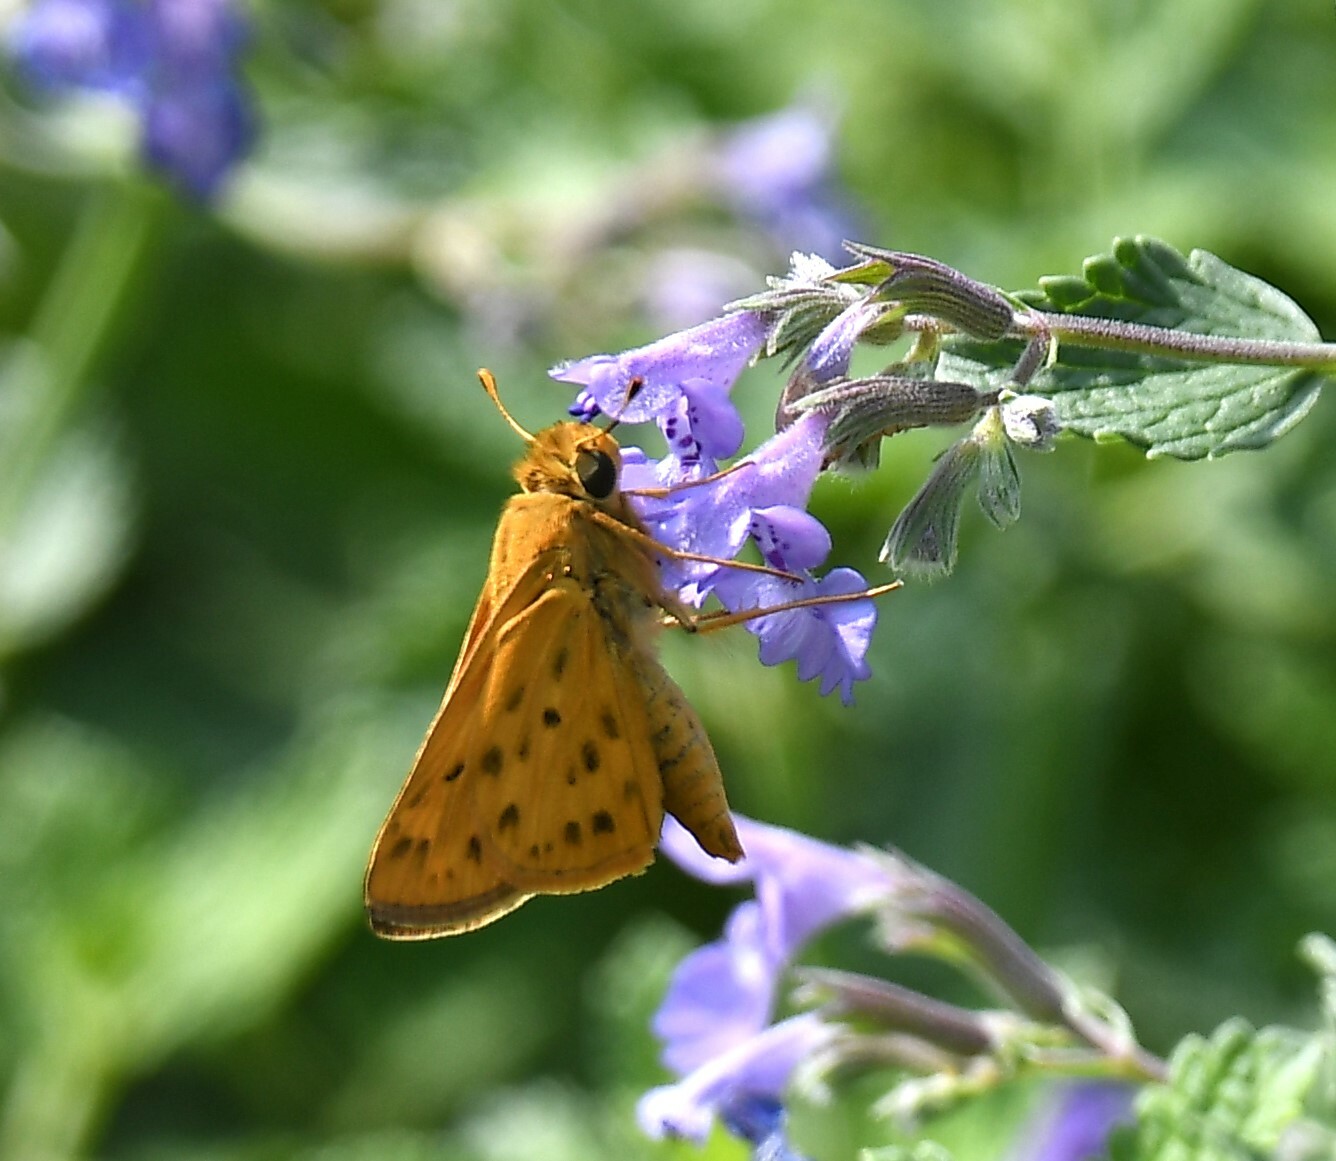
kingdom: Animalia
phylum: Arthropoda
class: Insecta
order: Lepidoptera
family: Hesperiidae
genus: Hylephila
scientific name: Hylephila phyleus
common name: Fiery skipper
